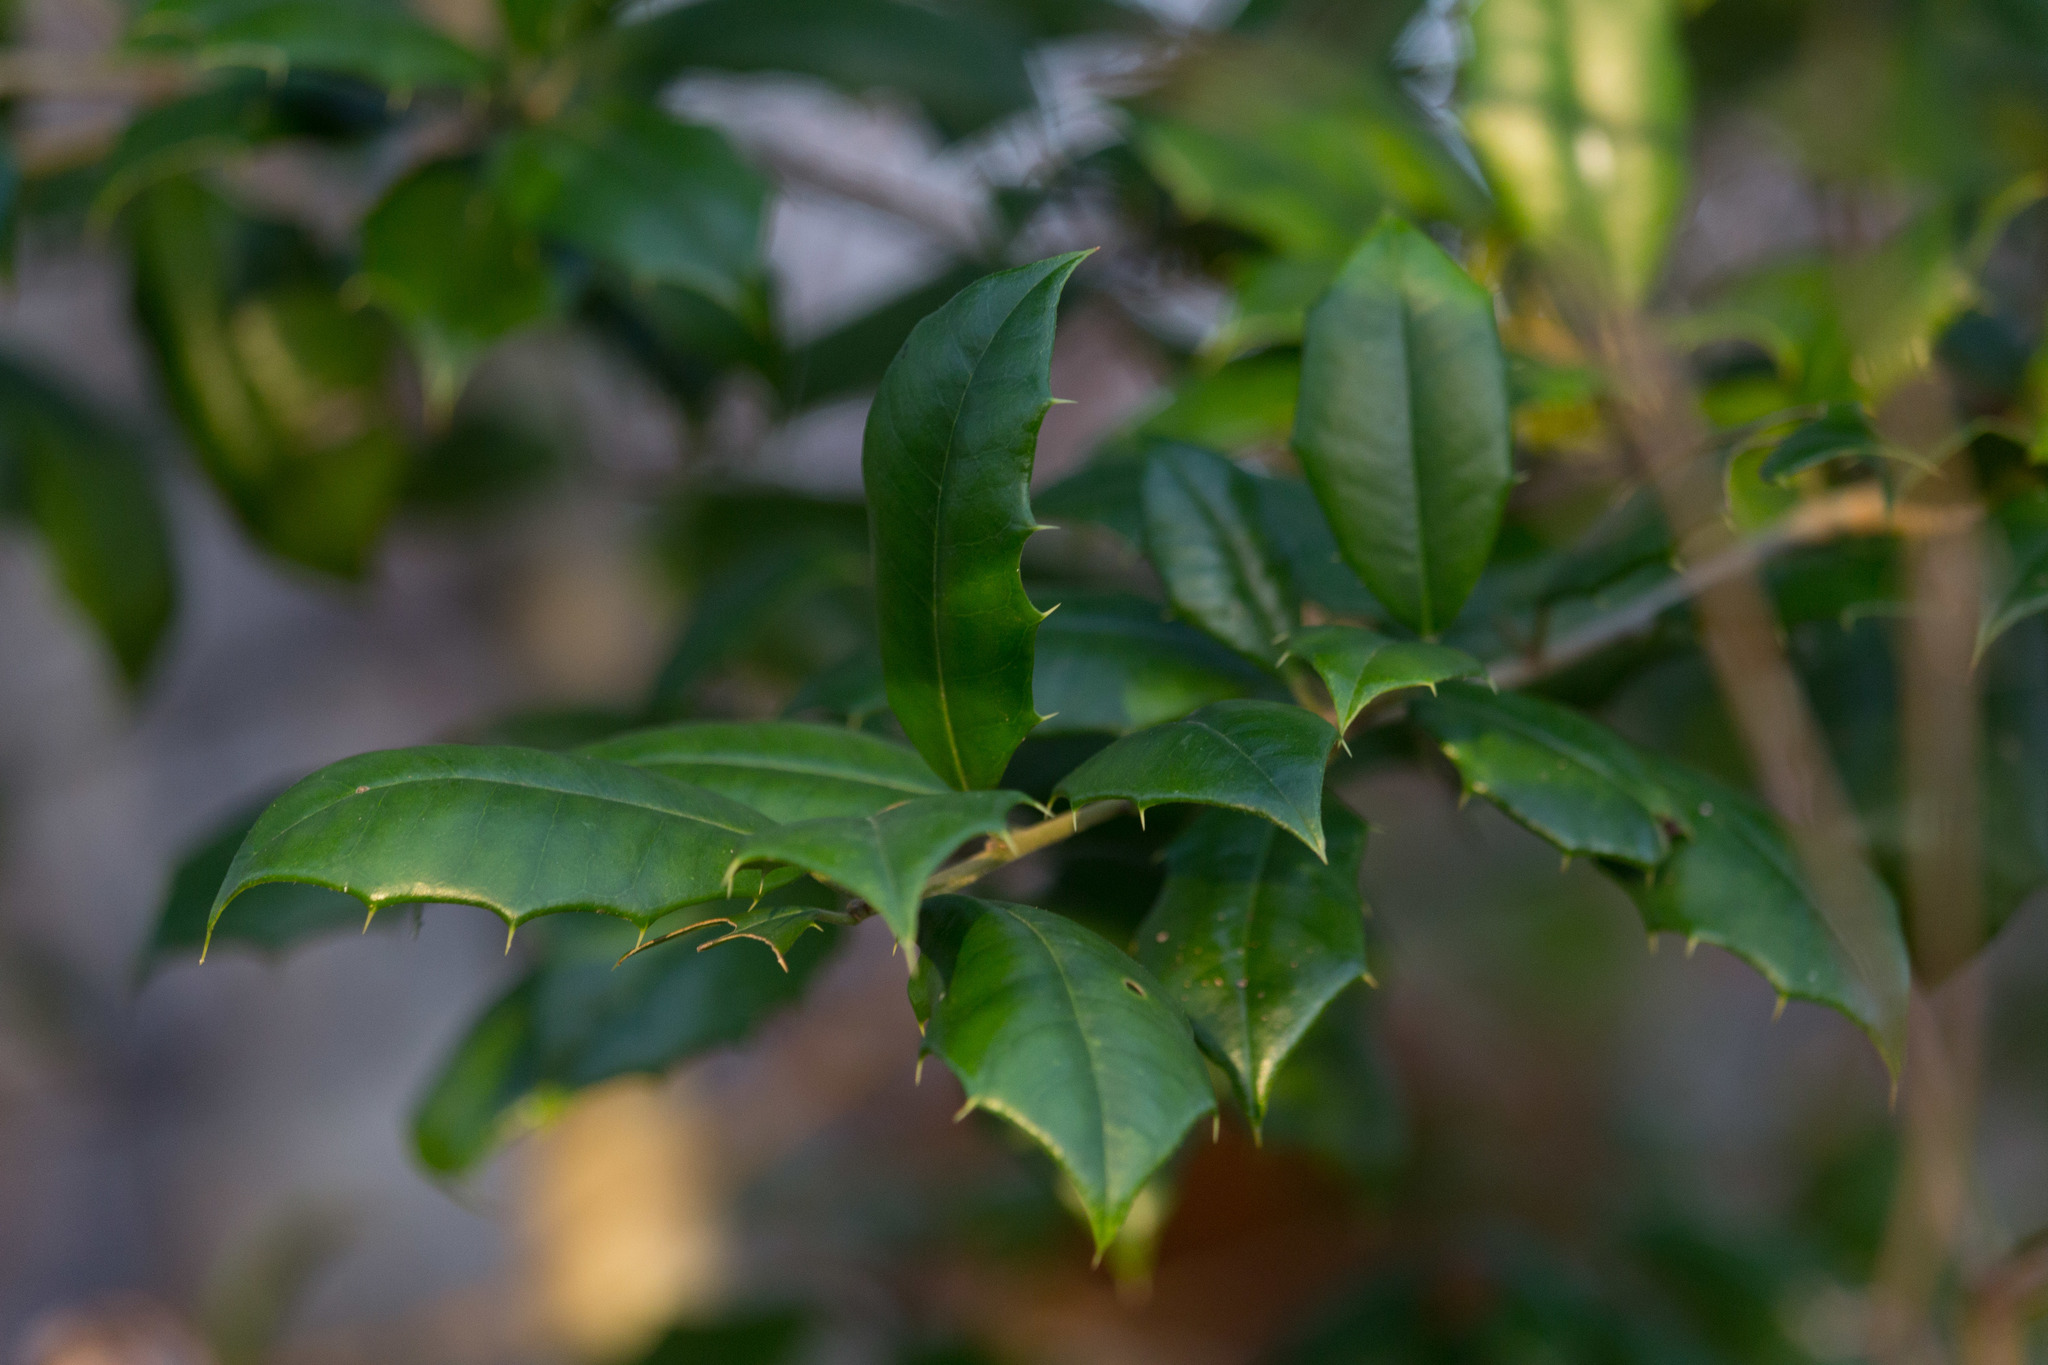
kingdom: Plantae
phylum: Tracheophyta
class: Magnoliopsida
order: Aquifoliales
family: Aquifoliaceae
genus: Ilex
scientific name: Ilex opaca
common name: American holly
